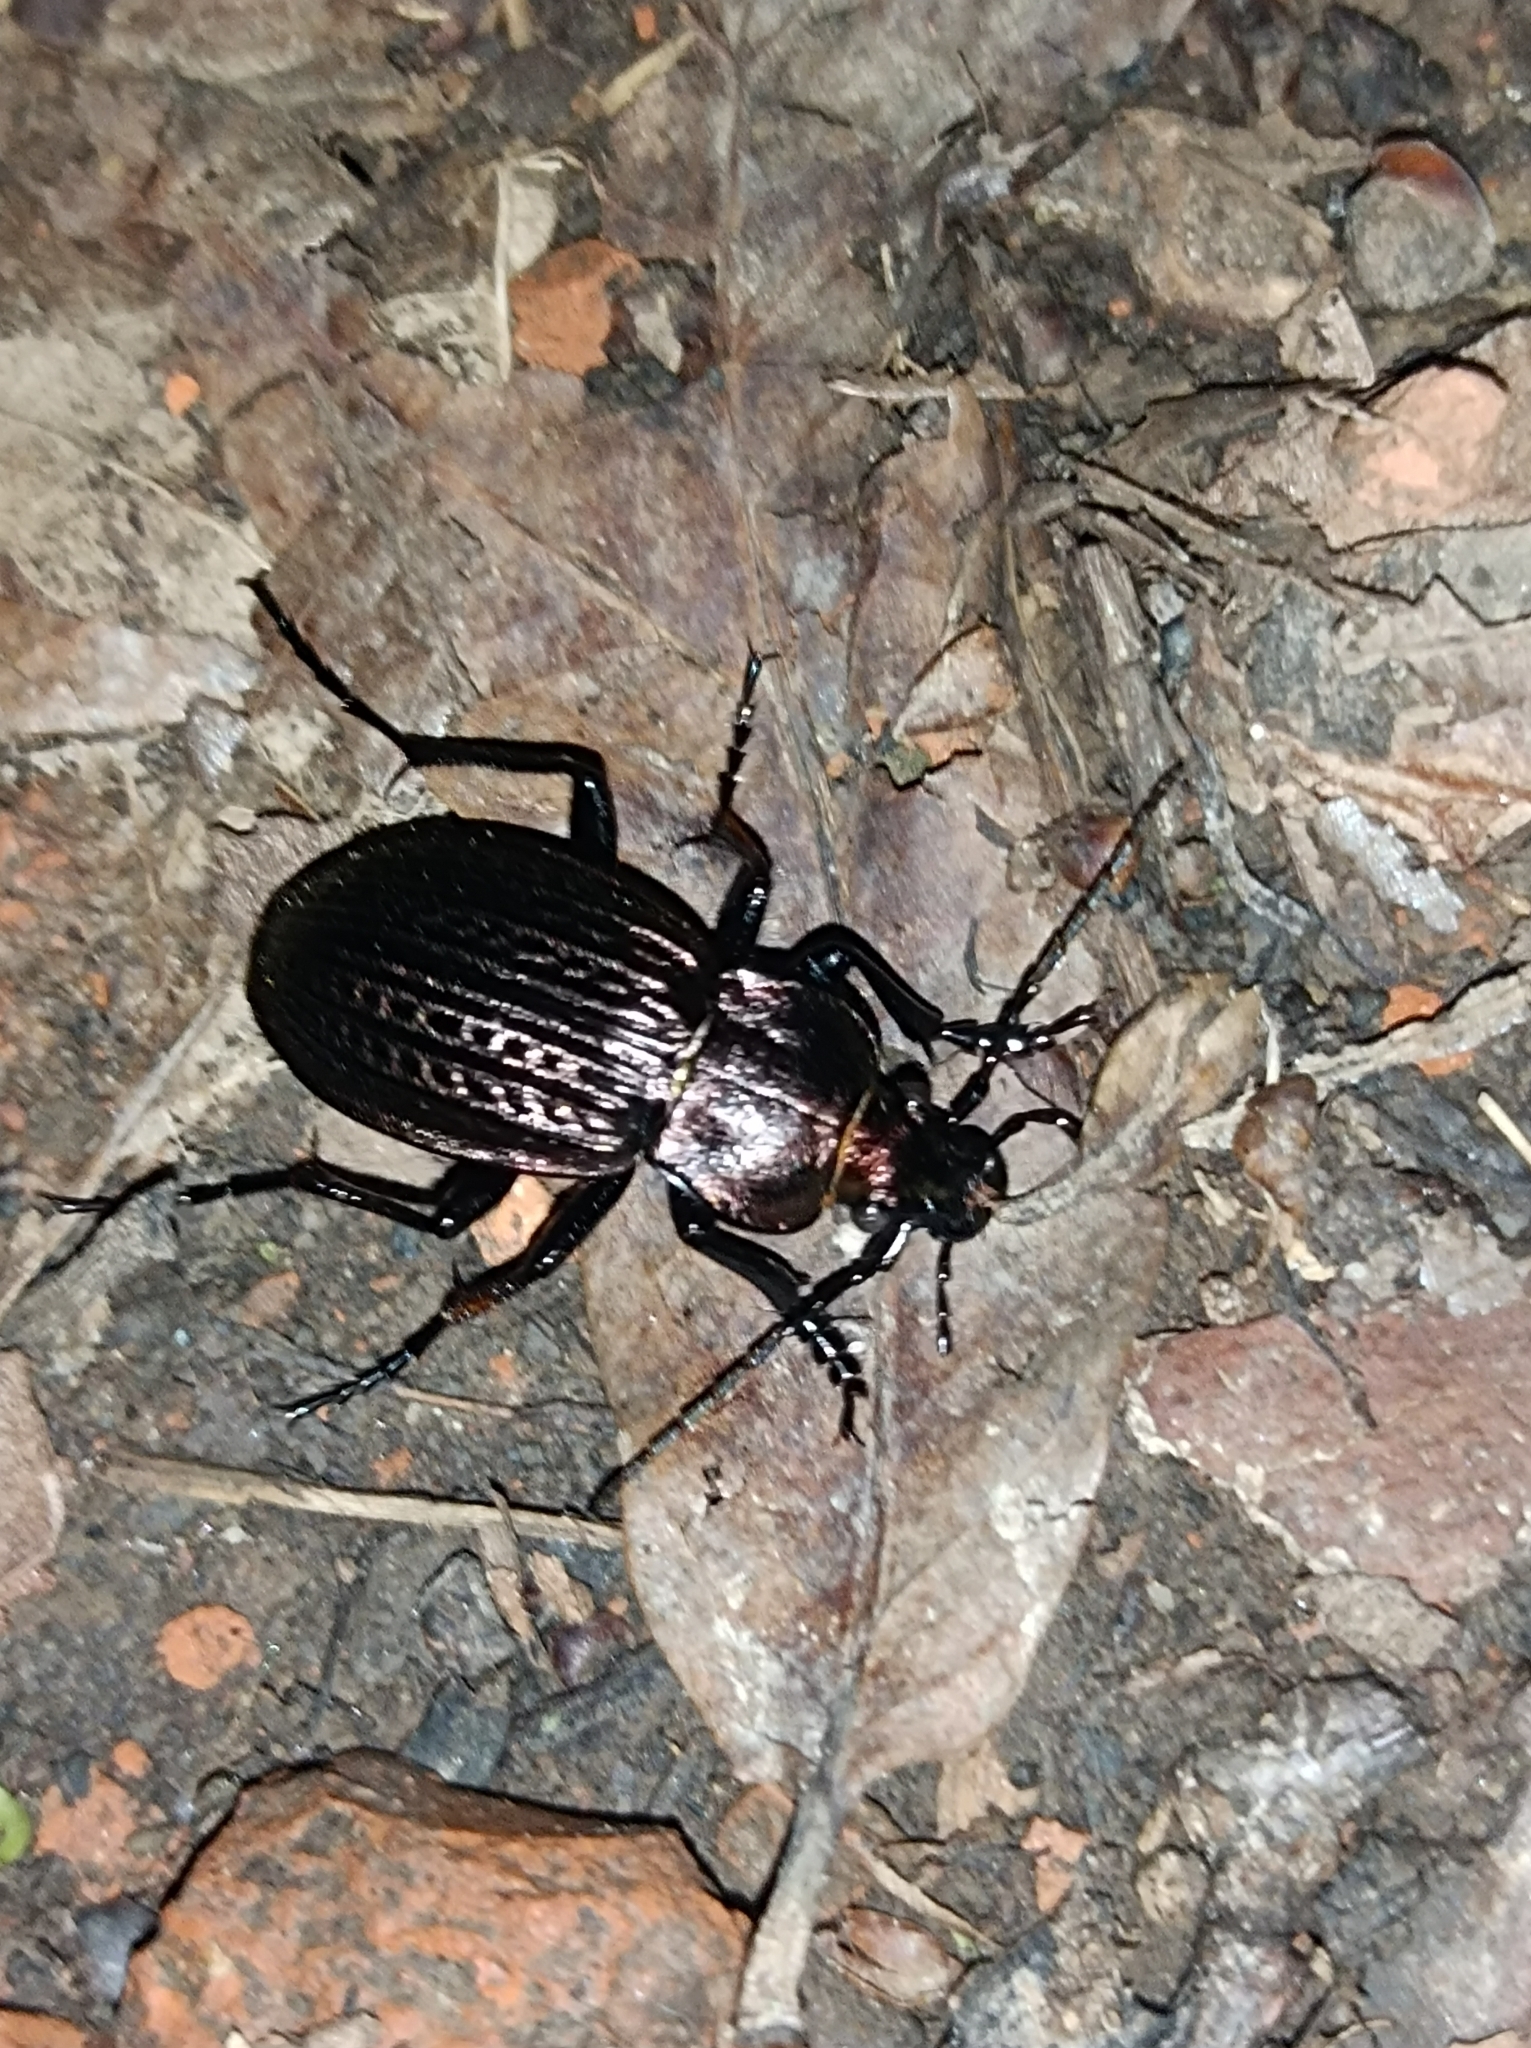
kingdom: Animalia
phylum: Arthropoda
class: Insecta
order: Coleoptera
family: Carabidae
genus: Carabus
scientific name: Carabus ulrichii
